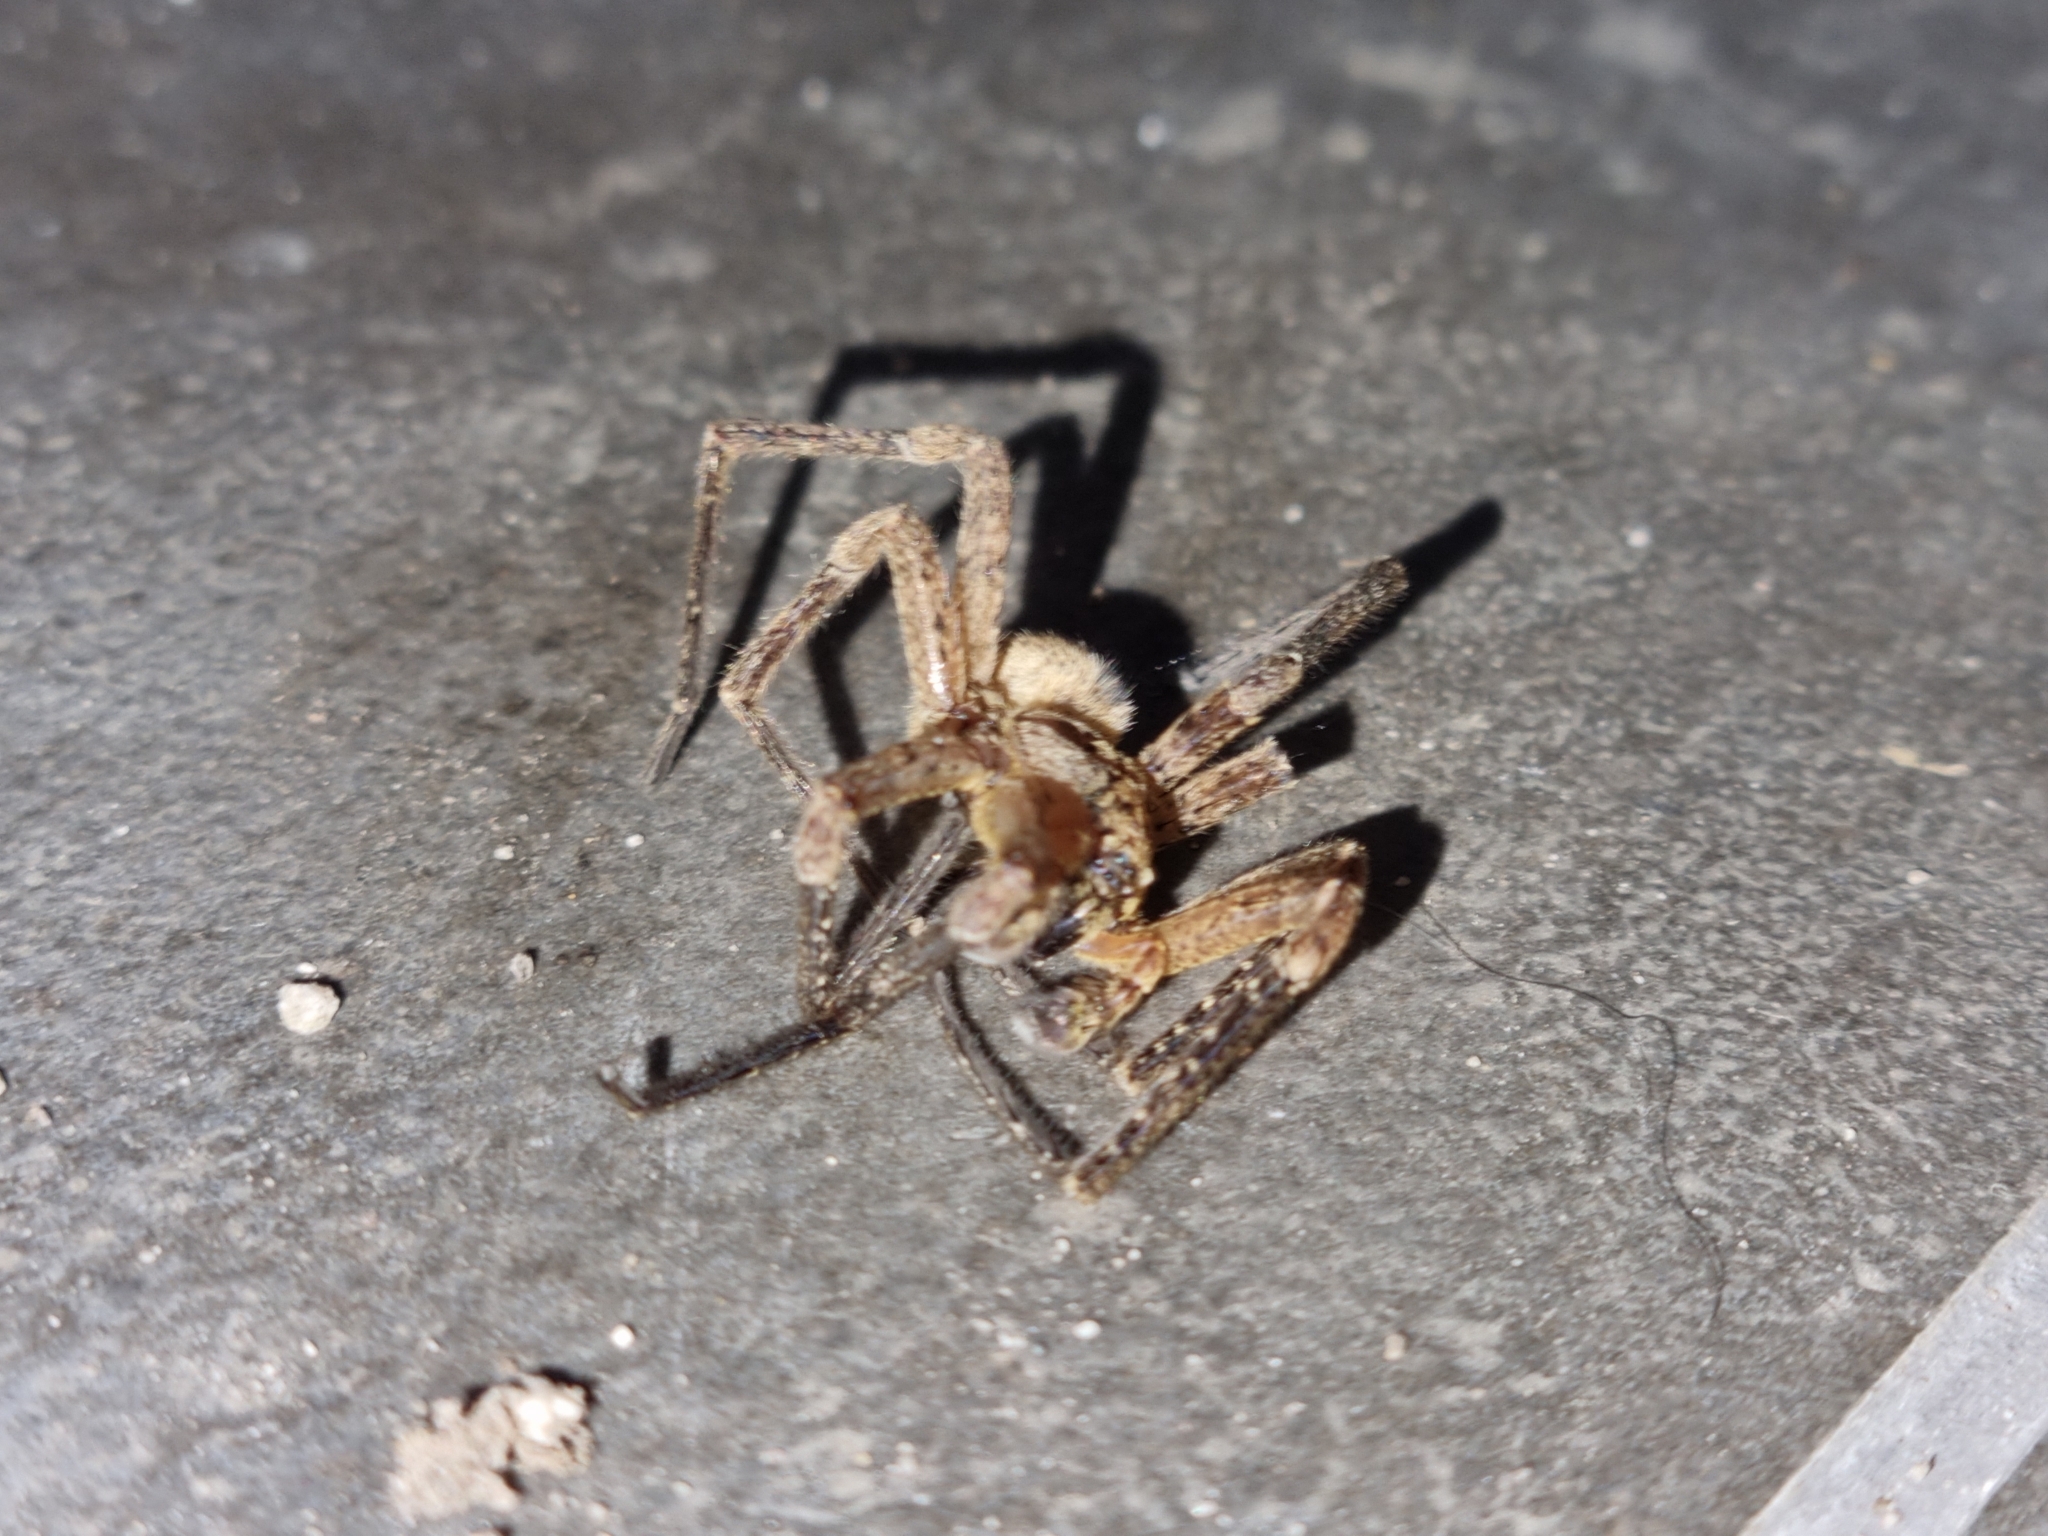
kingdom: Animalia
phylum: Arthropoda
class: Arachnida
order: Araneae
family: Zoropsidae
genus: Zoropsis
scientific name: Zoropsis spinimana
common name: Zoropsid spider
